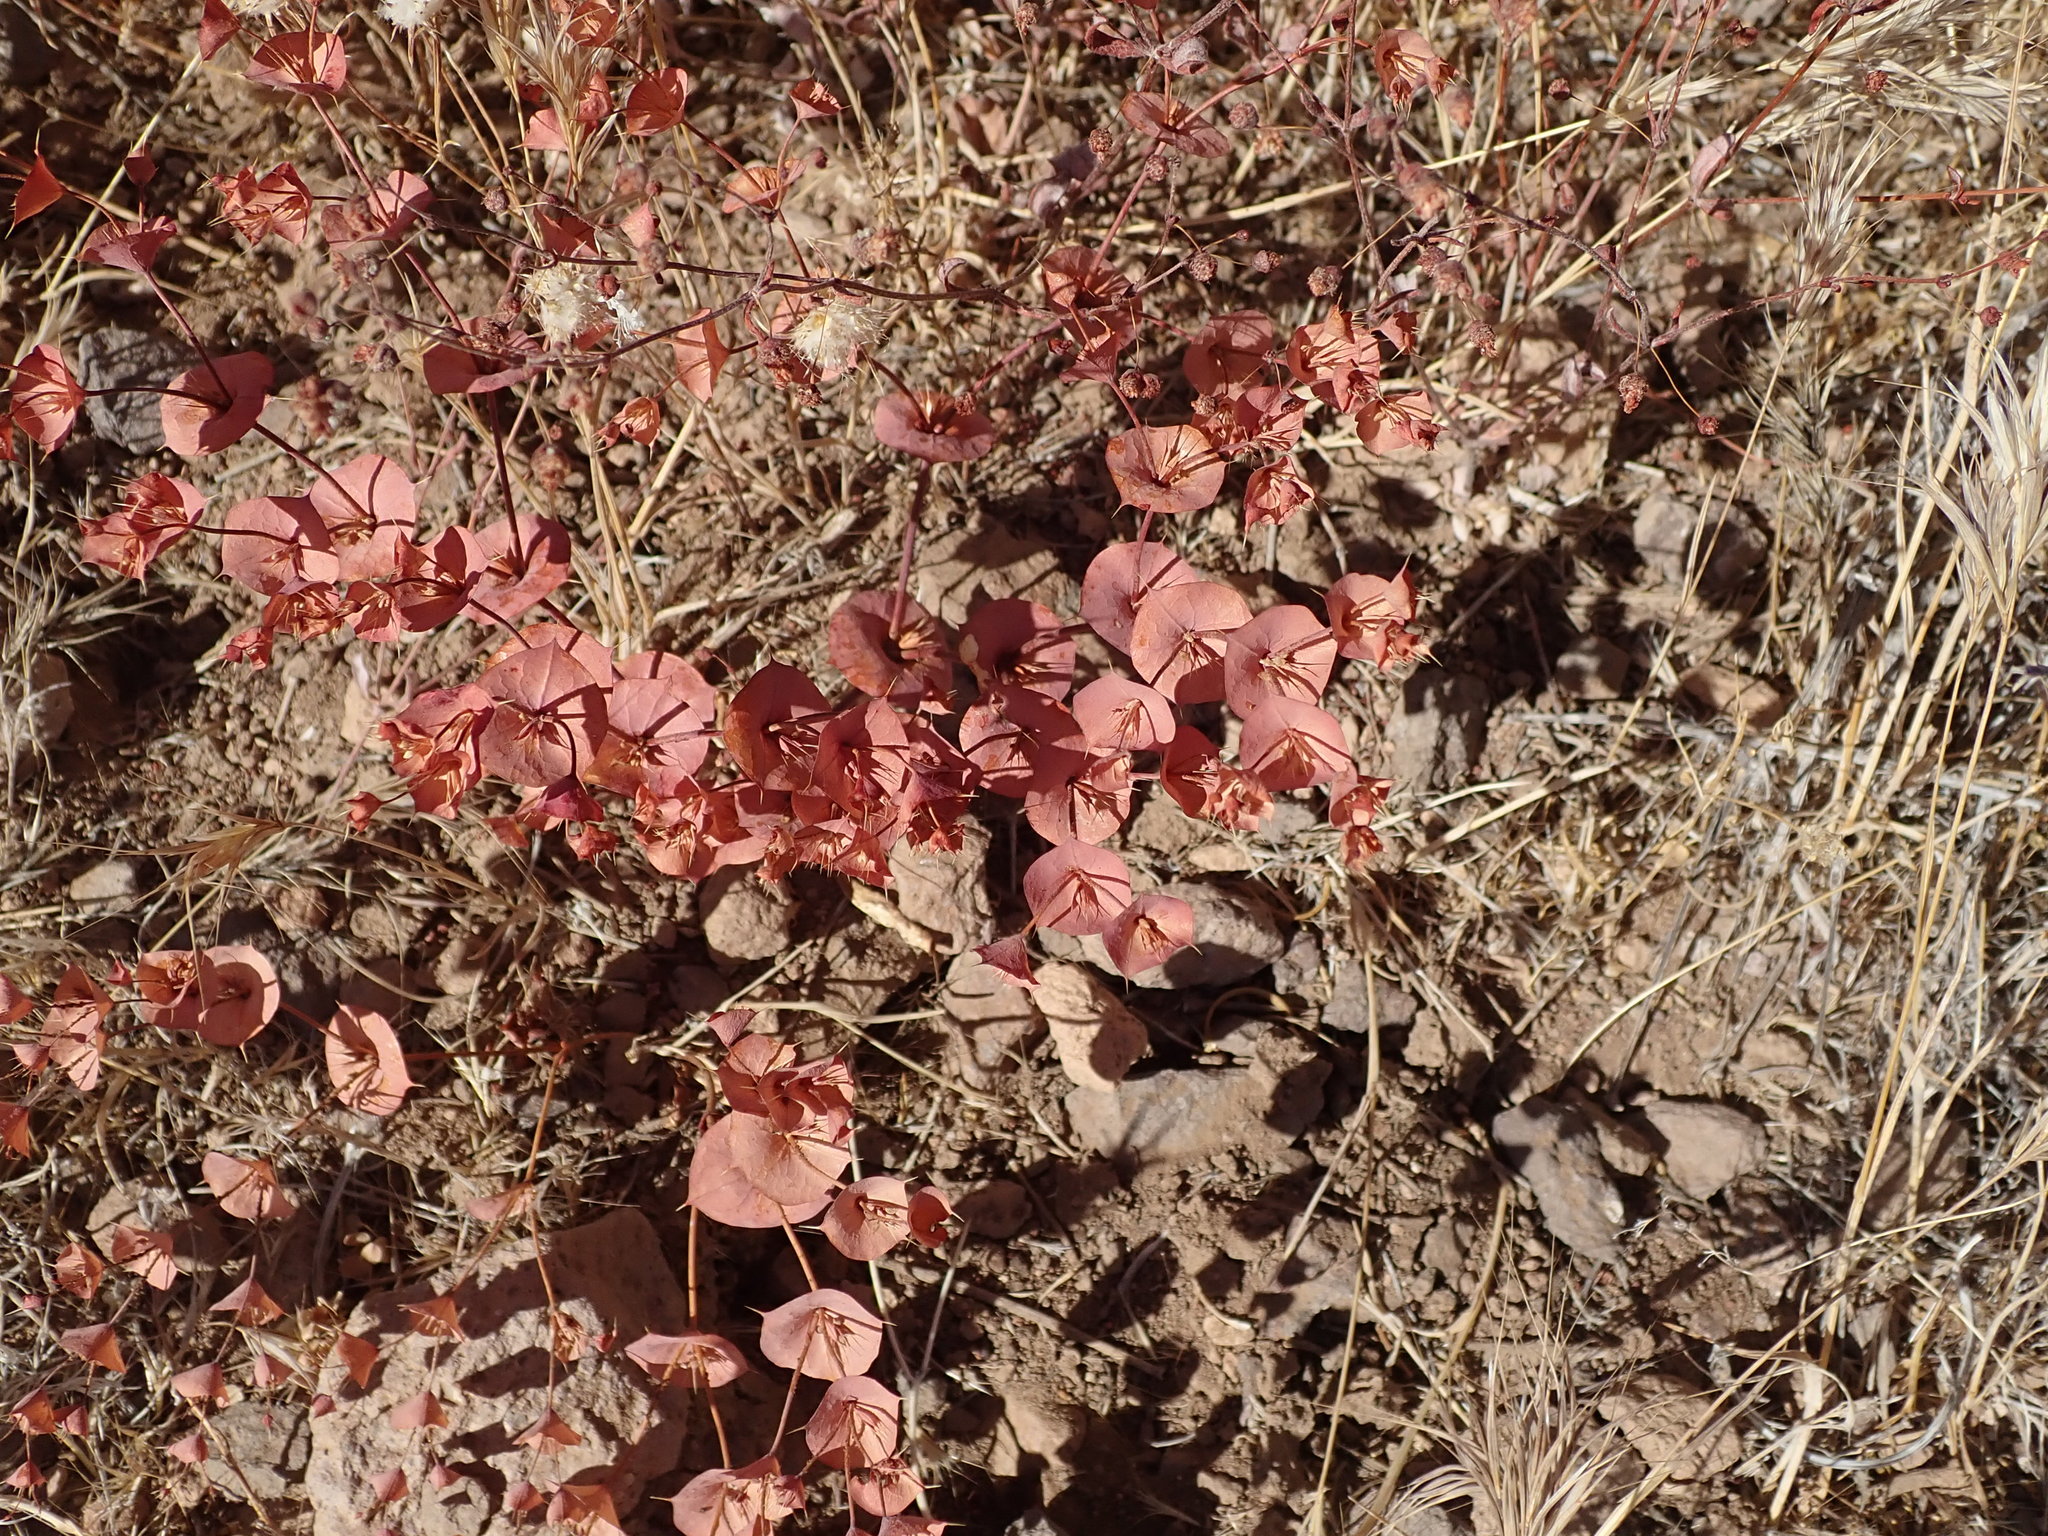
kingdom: Plantae
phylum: Tracheophyta
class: Magnoliopsida
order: Caryophyllales
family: Polygonaceae
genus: Oxytheca
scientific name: Oxytheca perfoliata
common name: Round-leaf puncturebract
